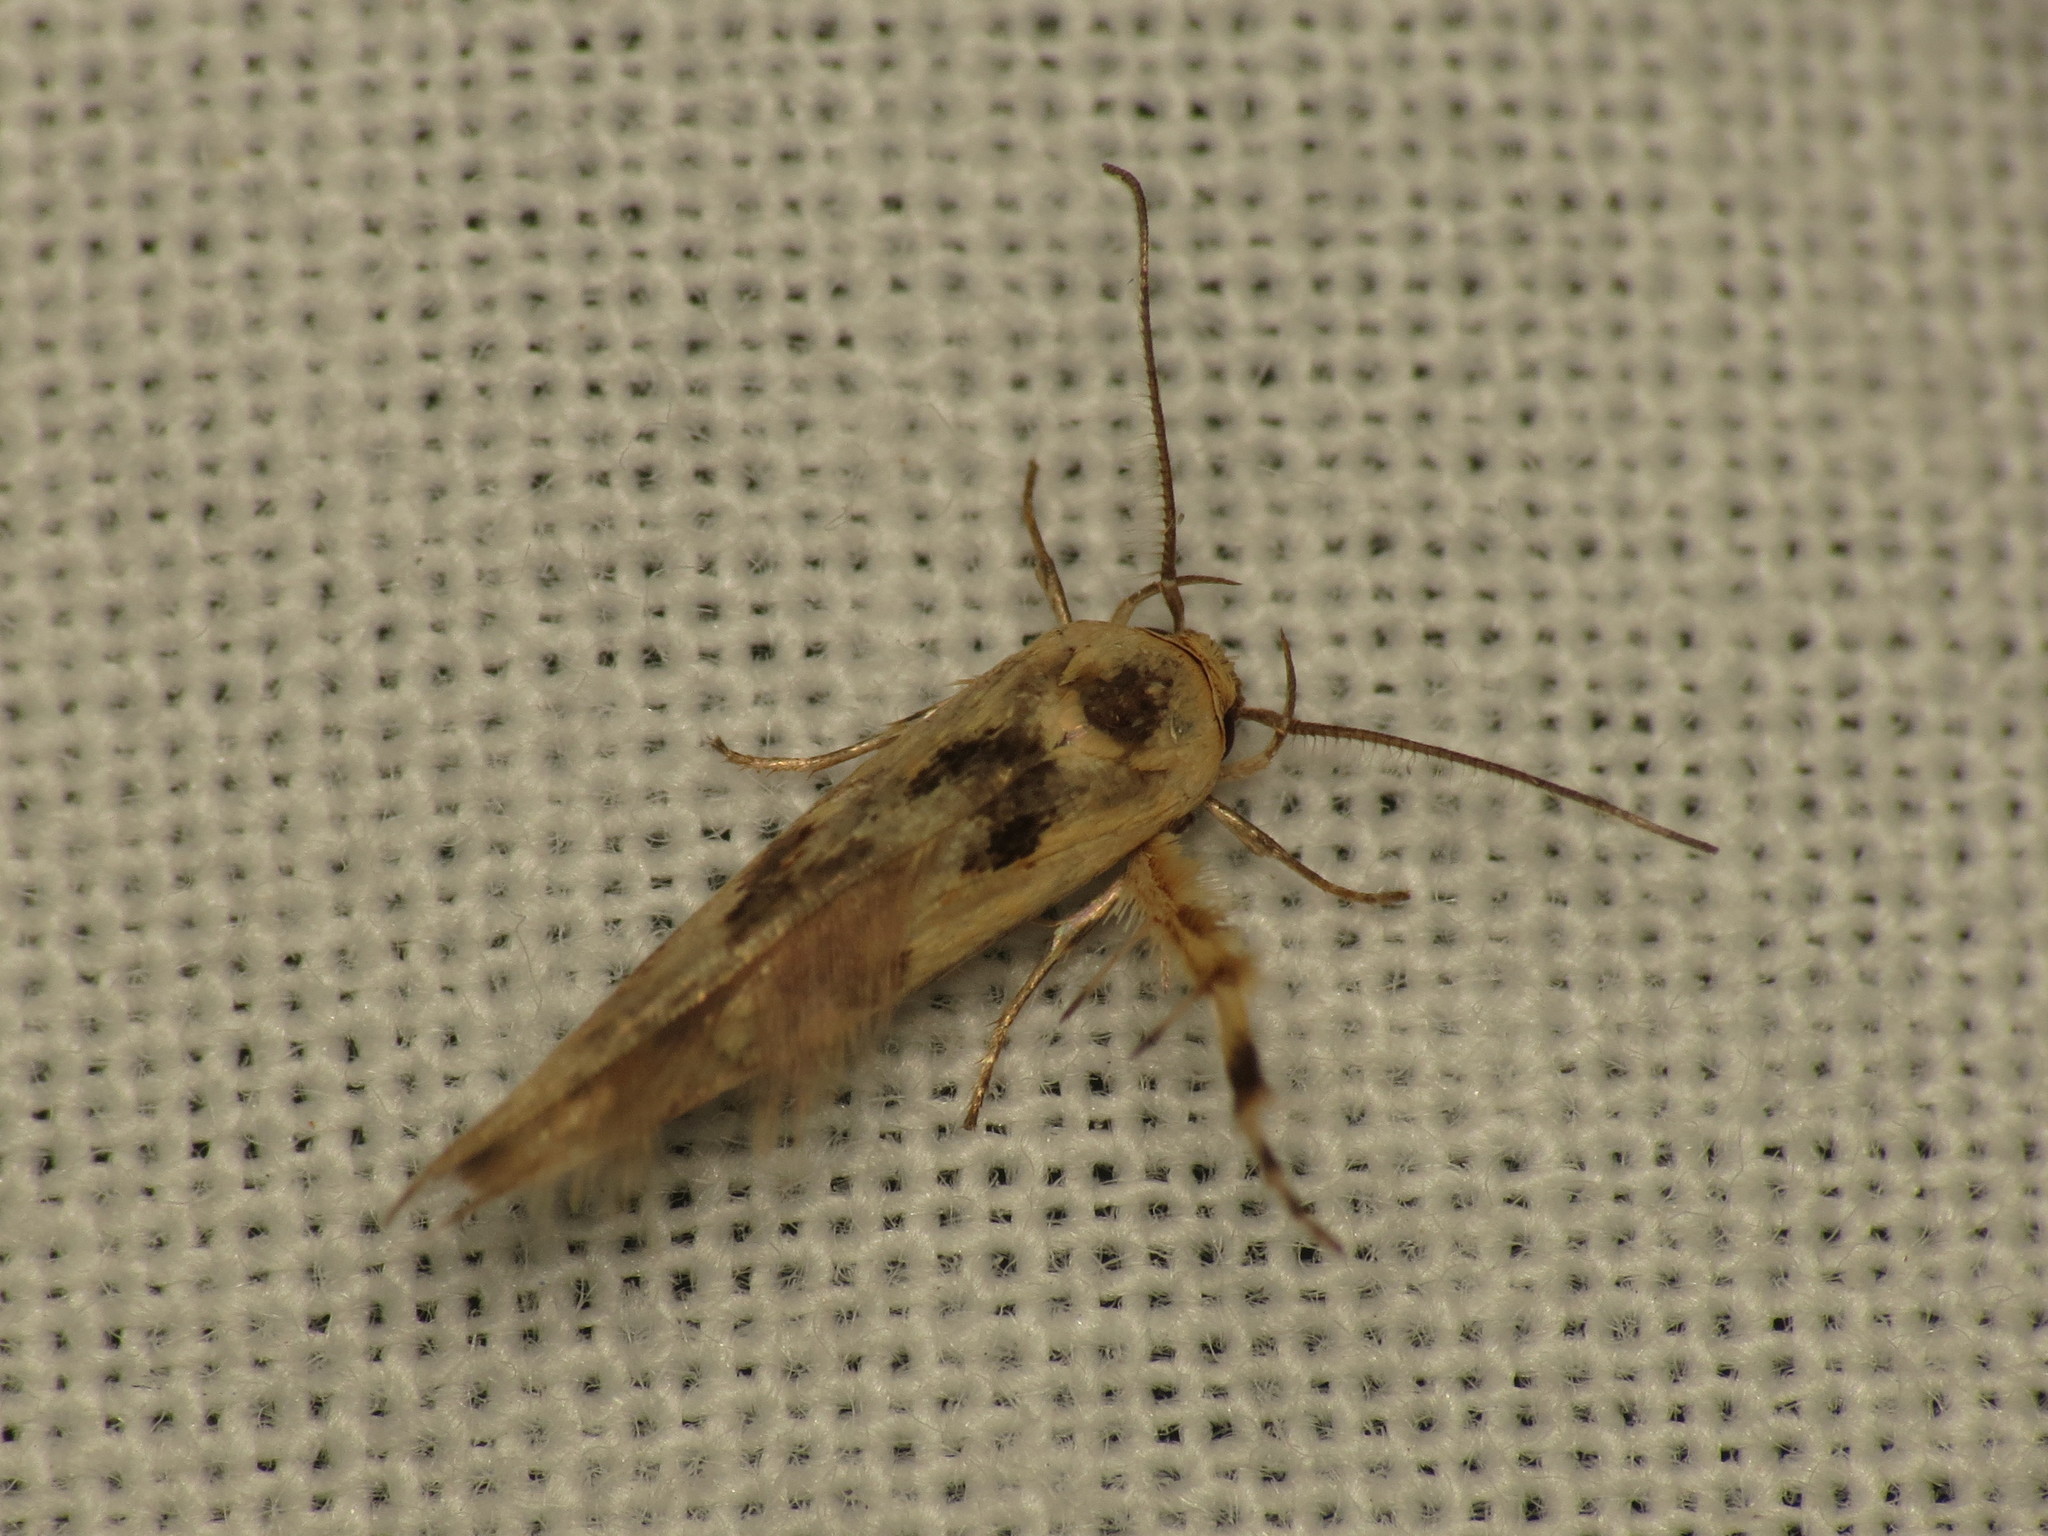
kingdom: Animalia
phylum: Arthropoda
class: Insecta
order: Lepidoptera
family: Stathmopodidae
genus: Stathmopoda
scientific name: Stathmopoda melanochra
